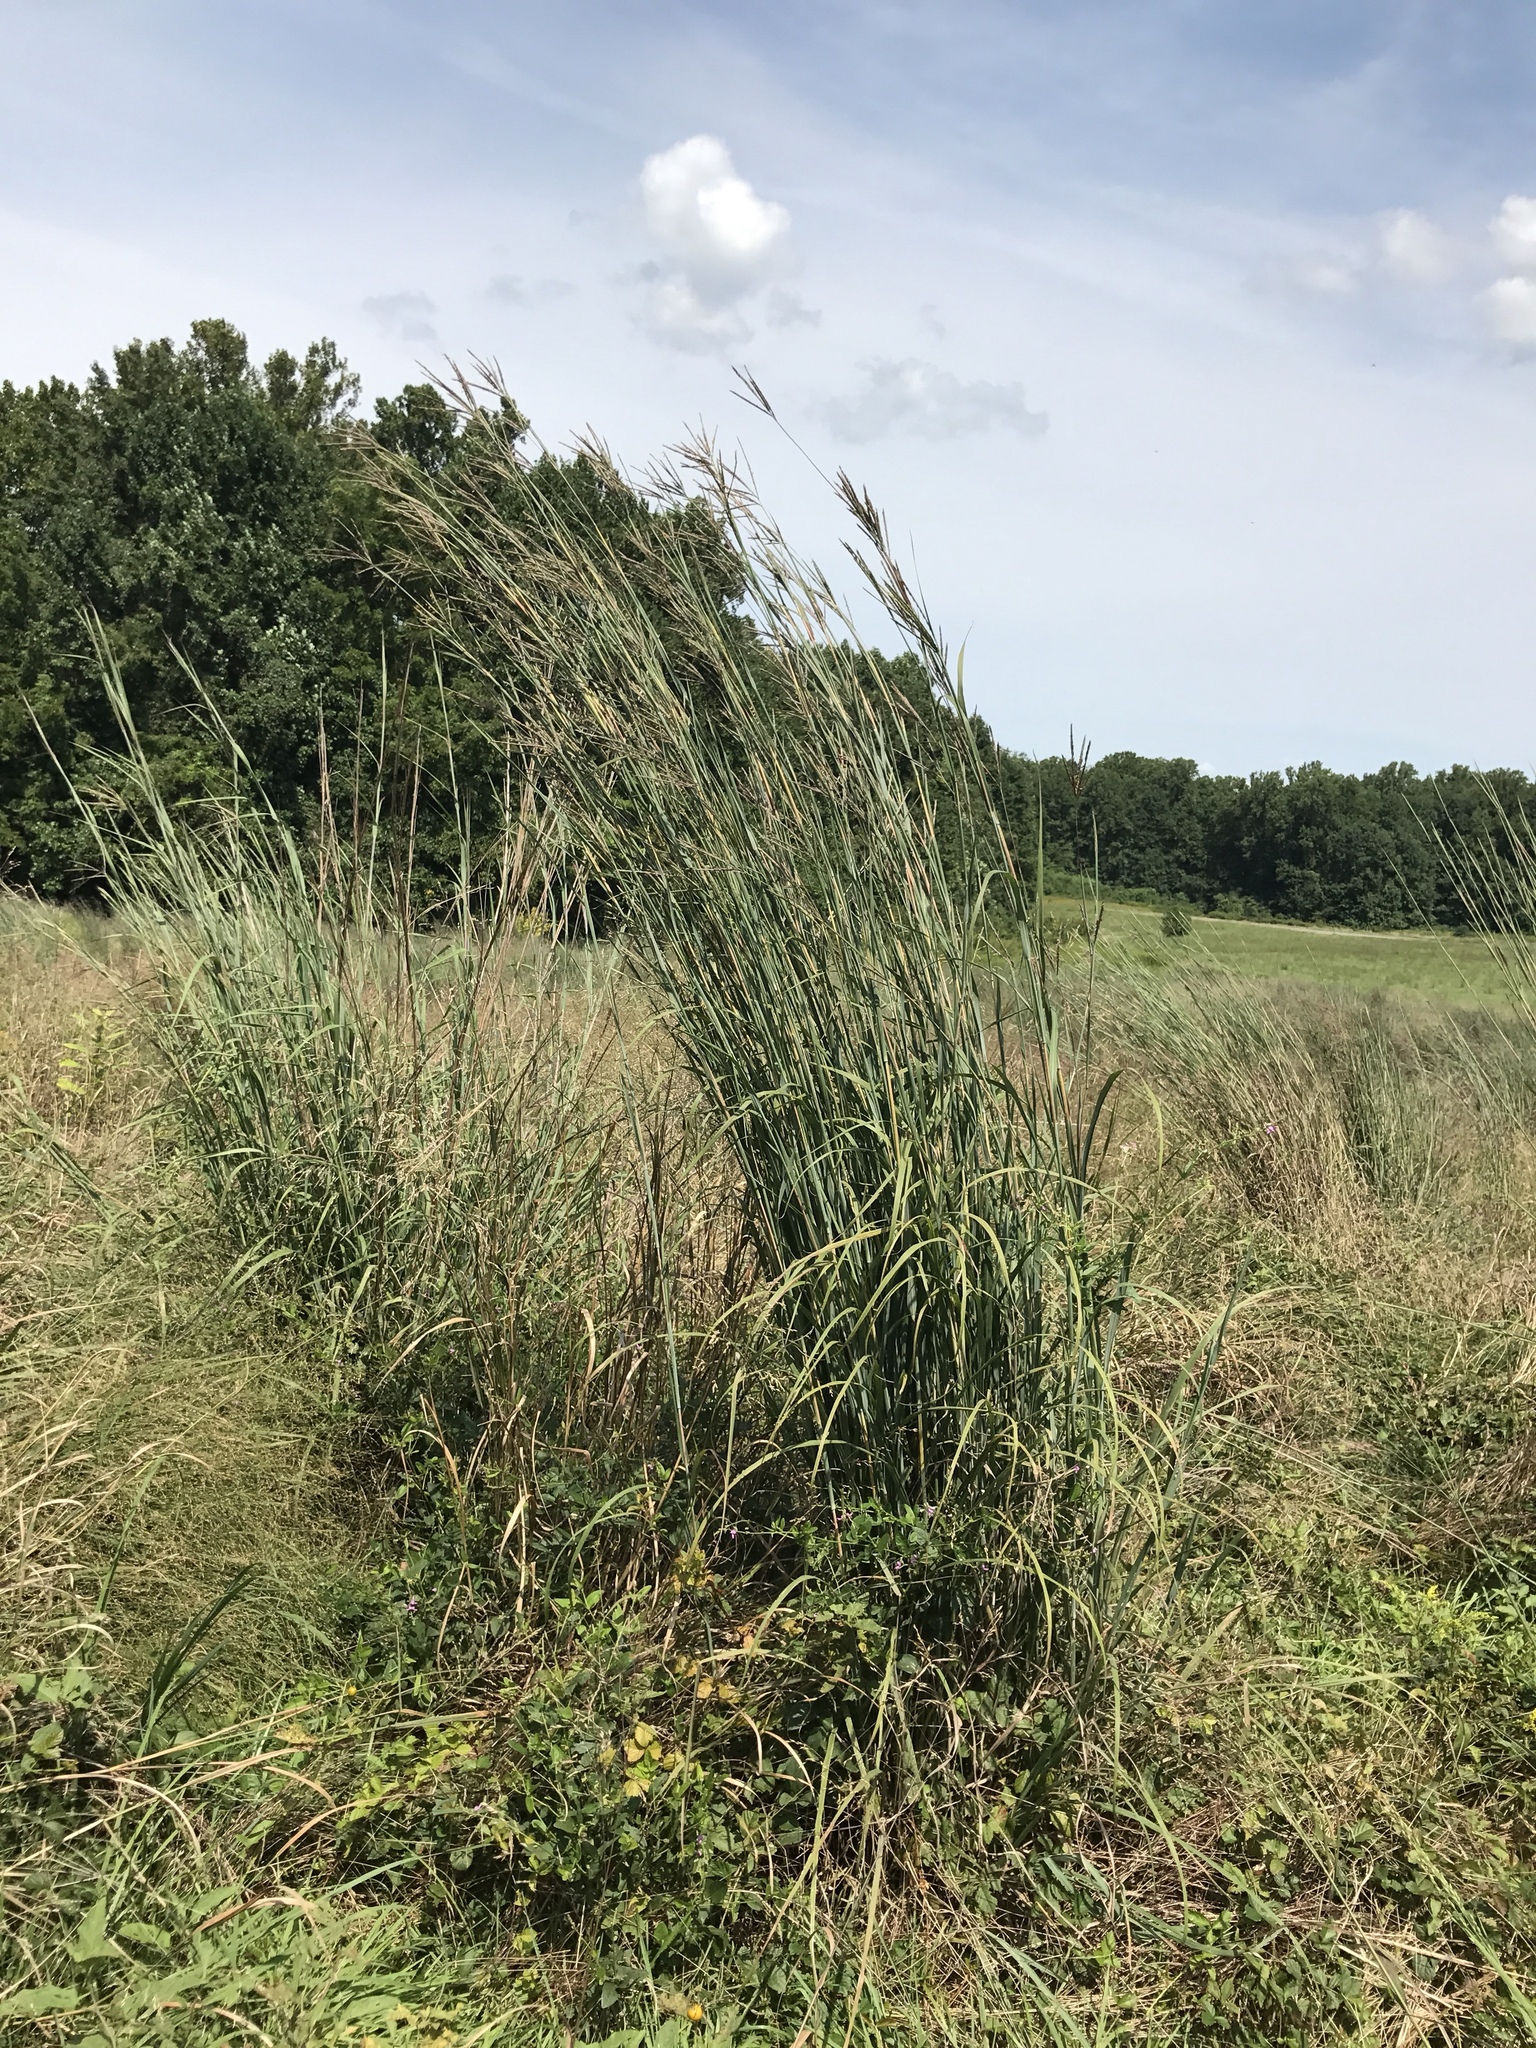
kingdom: Plantae
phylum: Tracheophyta
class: Liliopsida
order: Poales
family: Poaceae
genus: Andropogon
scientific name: Andropogon gerardi
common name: Big bluestem
